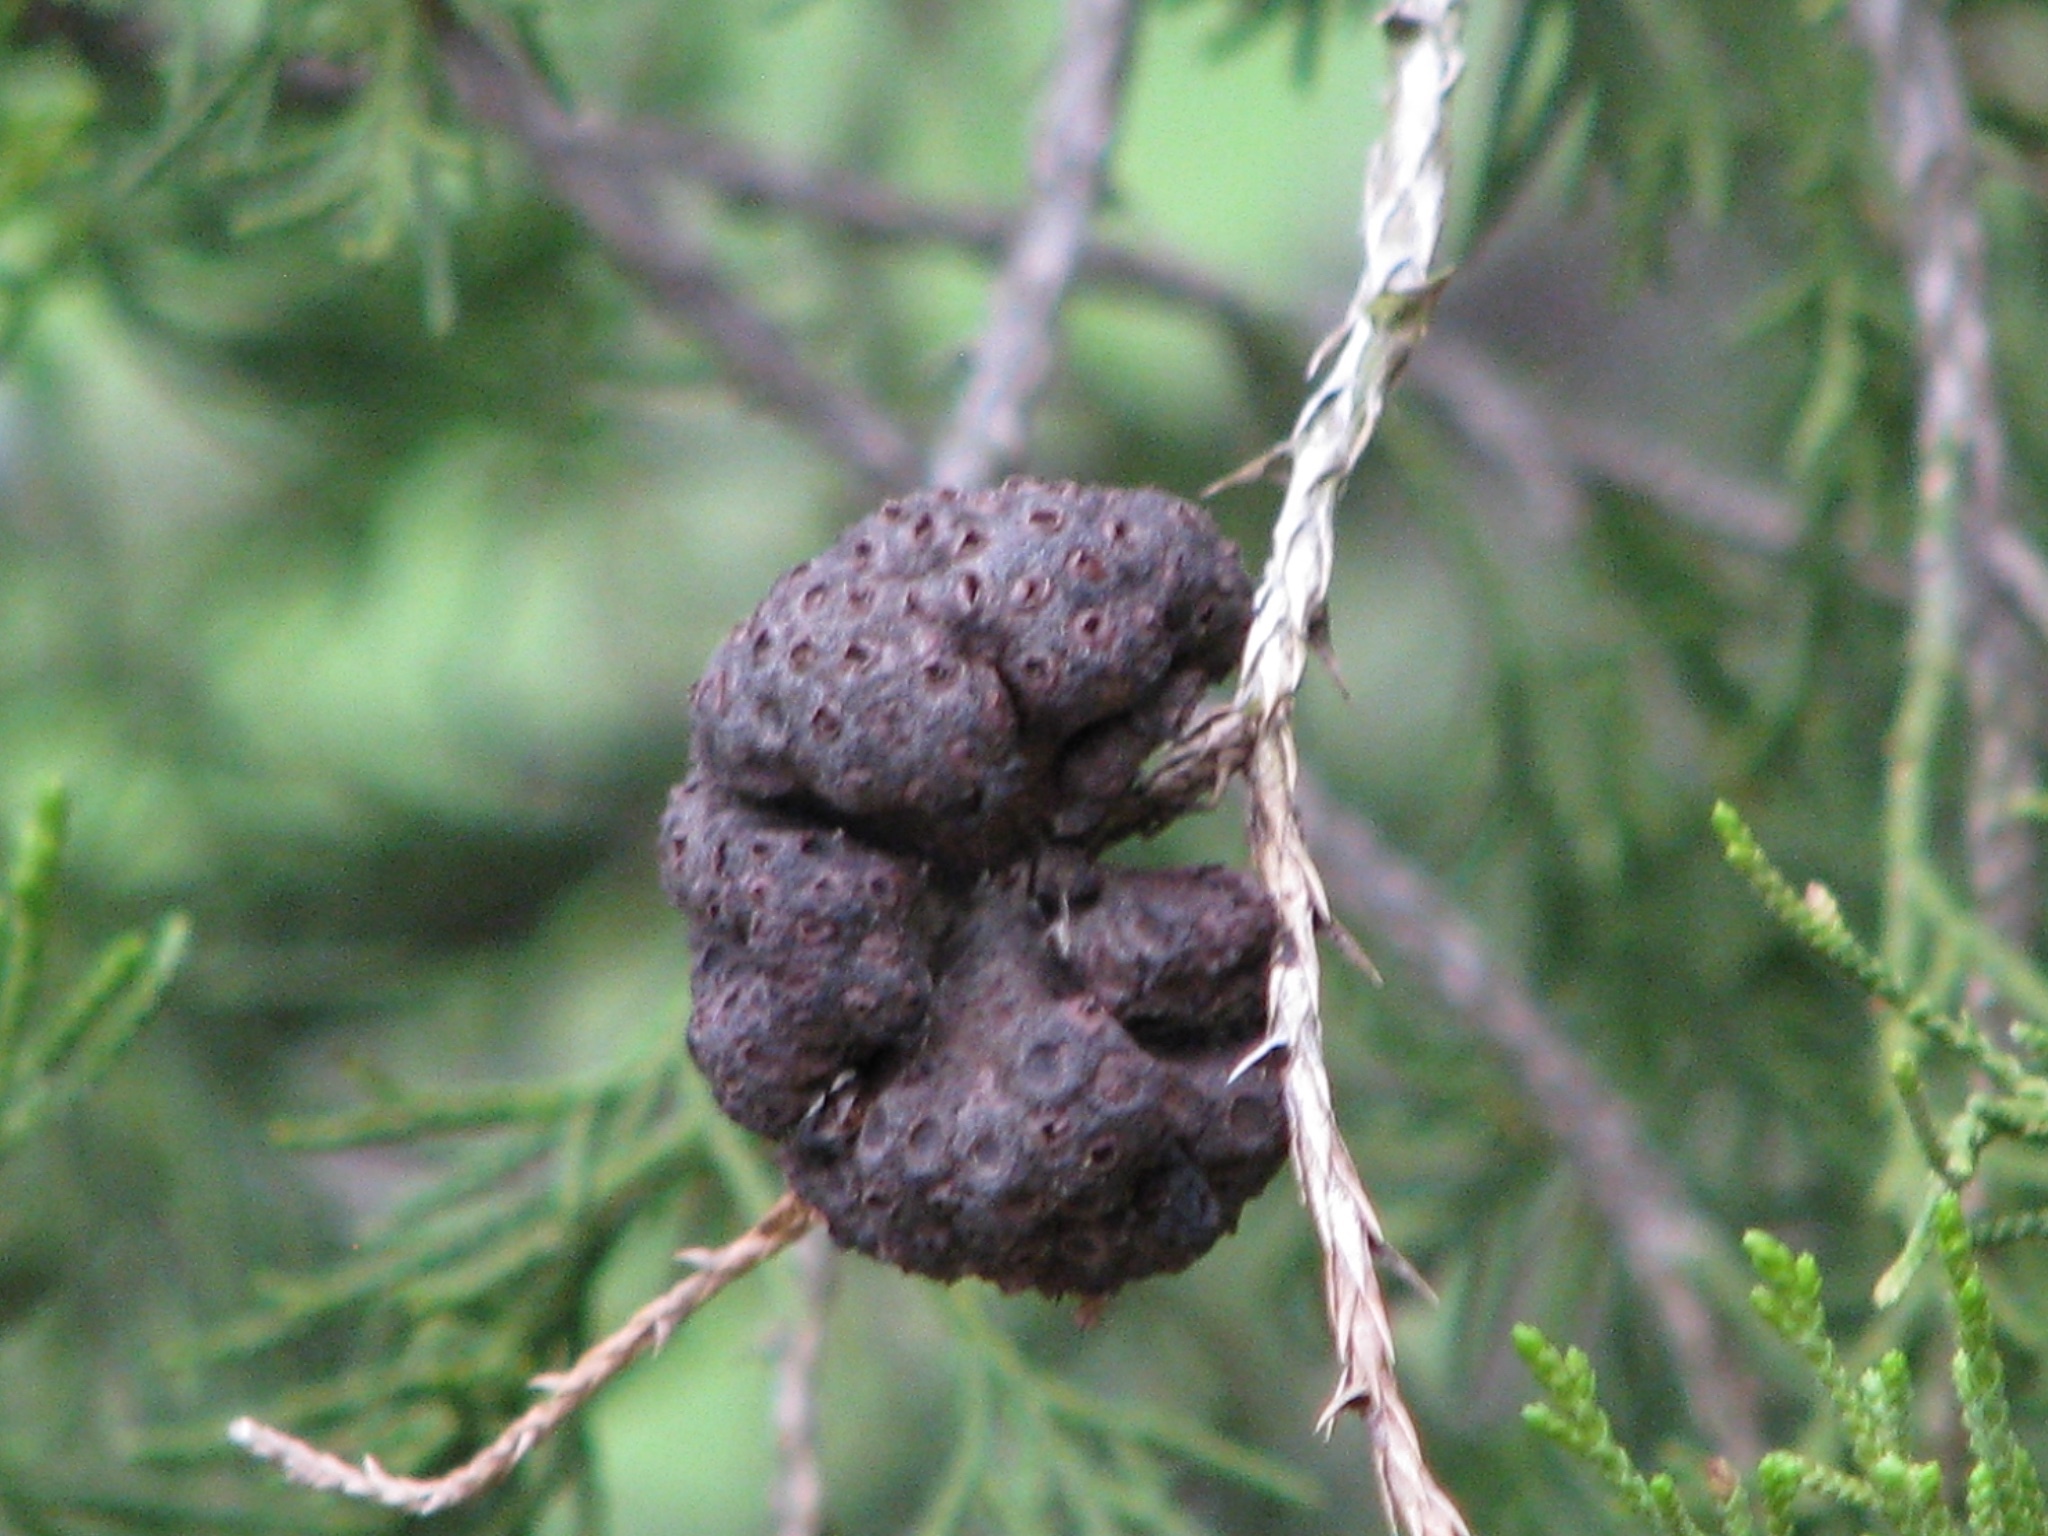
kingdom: Fungi
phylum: Basidiomycota
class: Pucciniomycetes
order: Pucciniales
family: Gymnosporangiaceae
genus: Gymnosporangium
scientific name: Gymnosporangium juniperi-virginianae
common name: Juniper-apple rust
